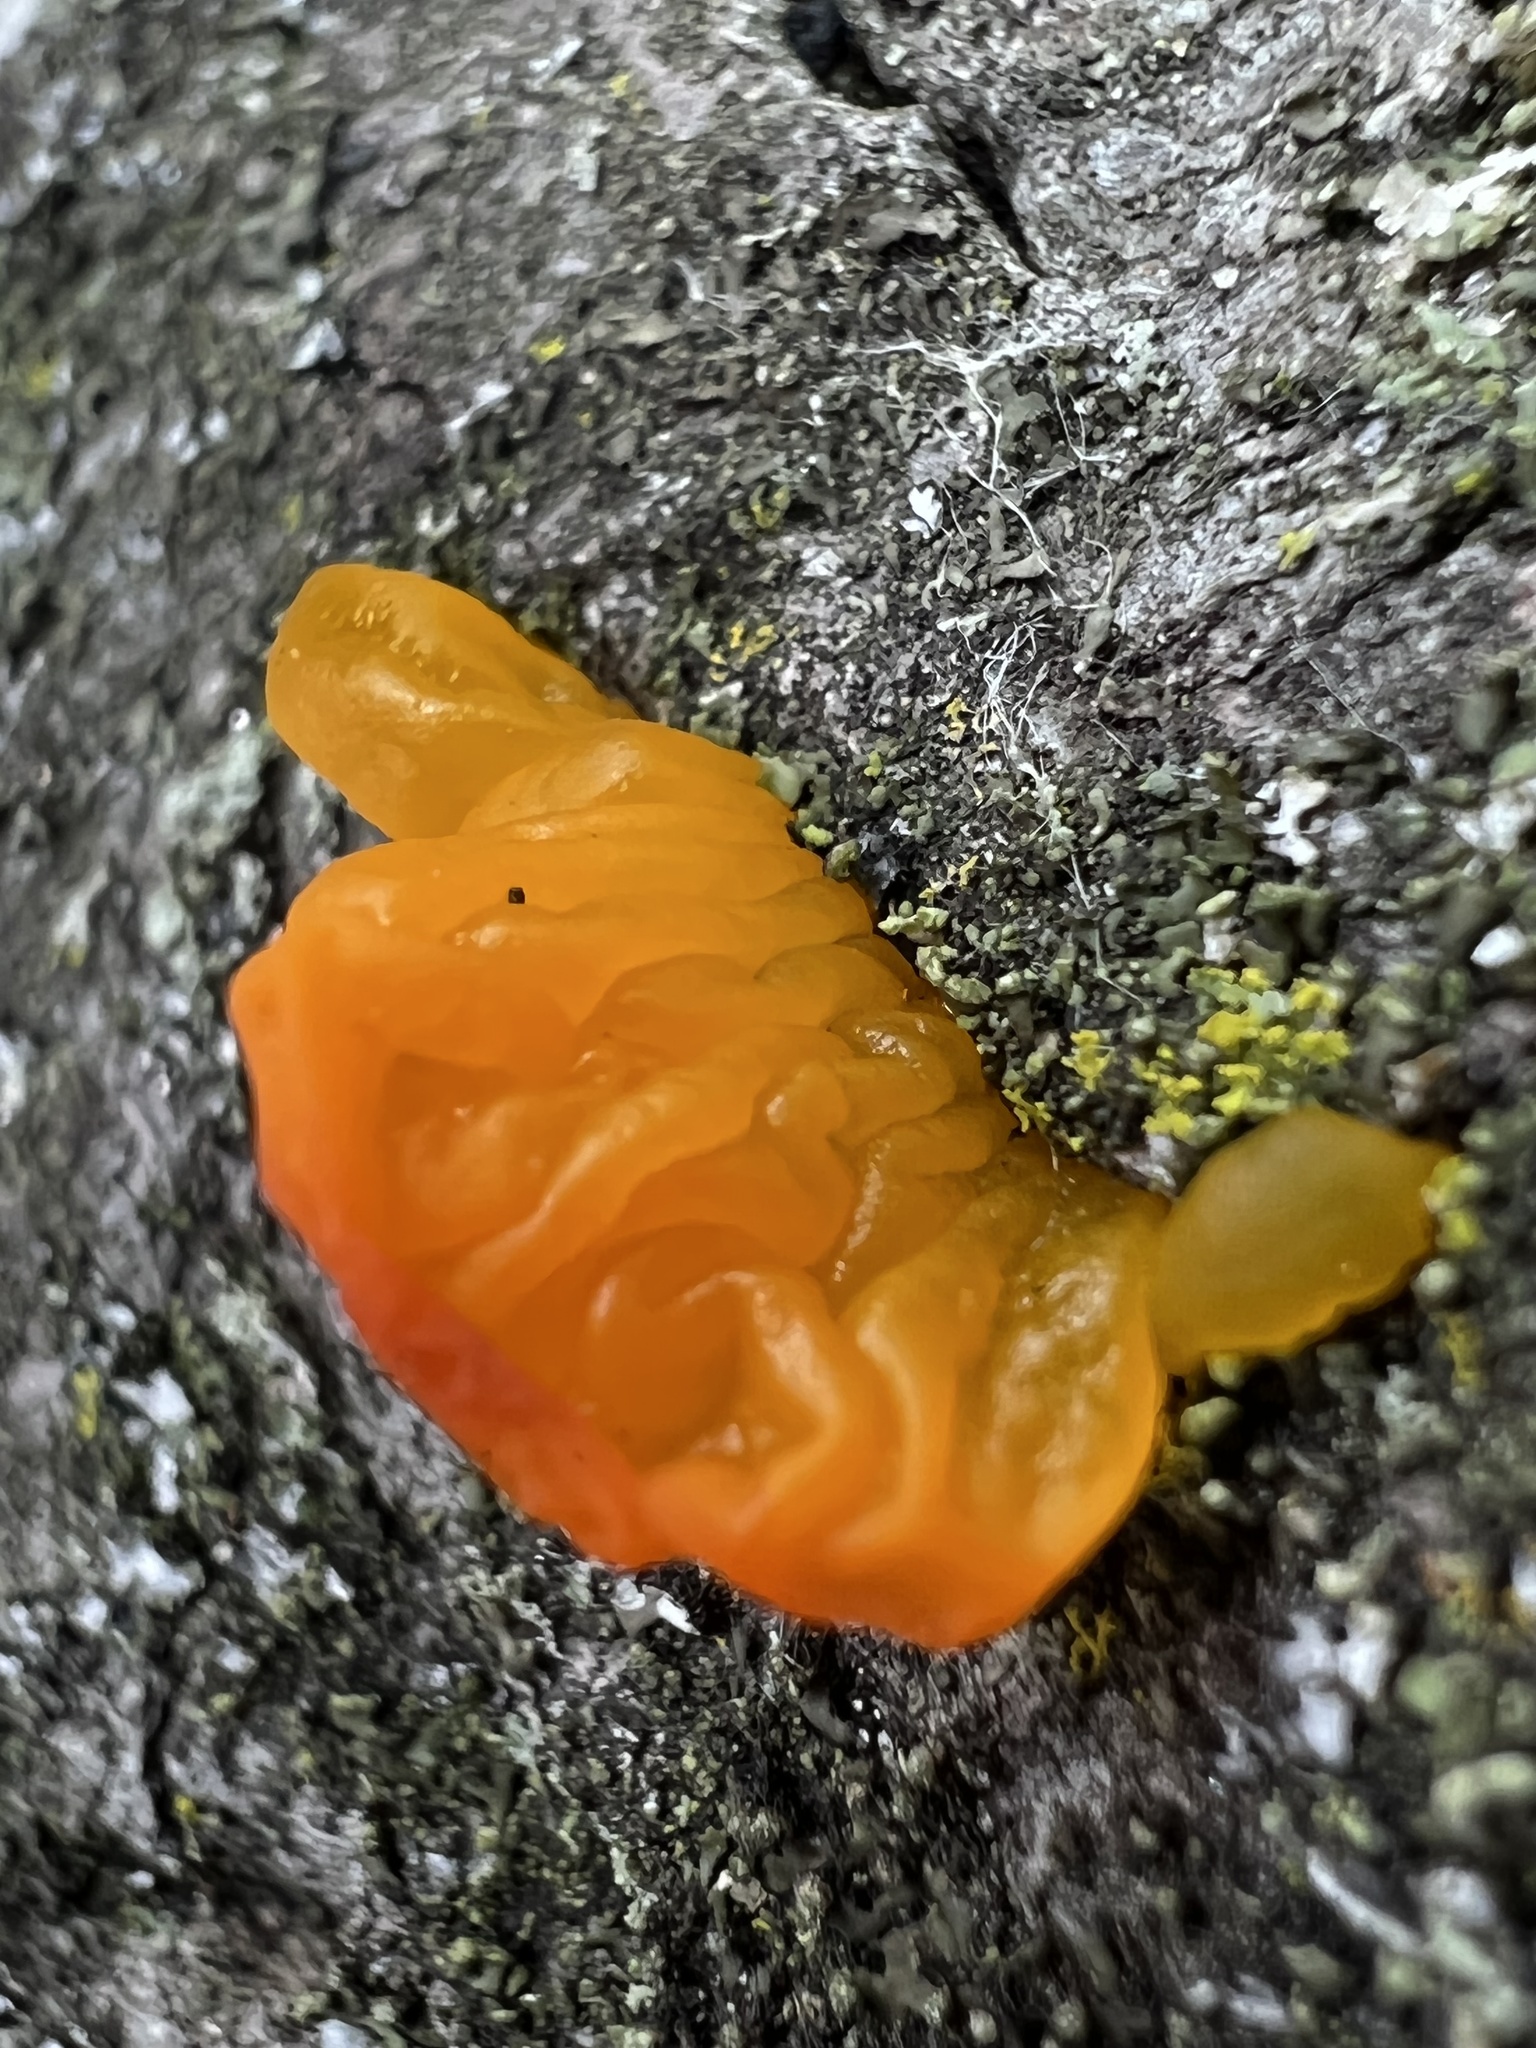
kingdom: Fungi
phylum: Basidiomycota
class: Tremellomycetes
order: Tremellales
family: Tremellaceae
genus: Tremella
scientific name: Tremella mesenterica
